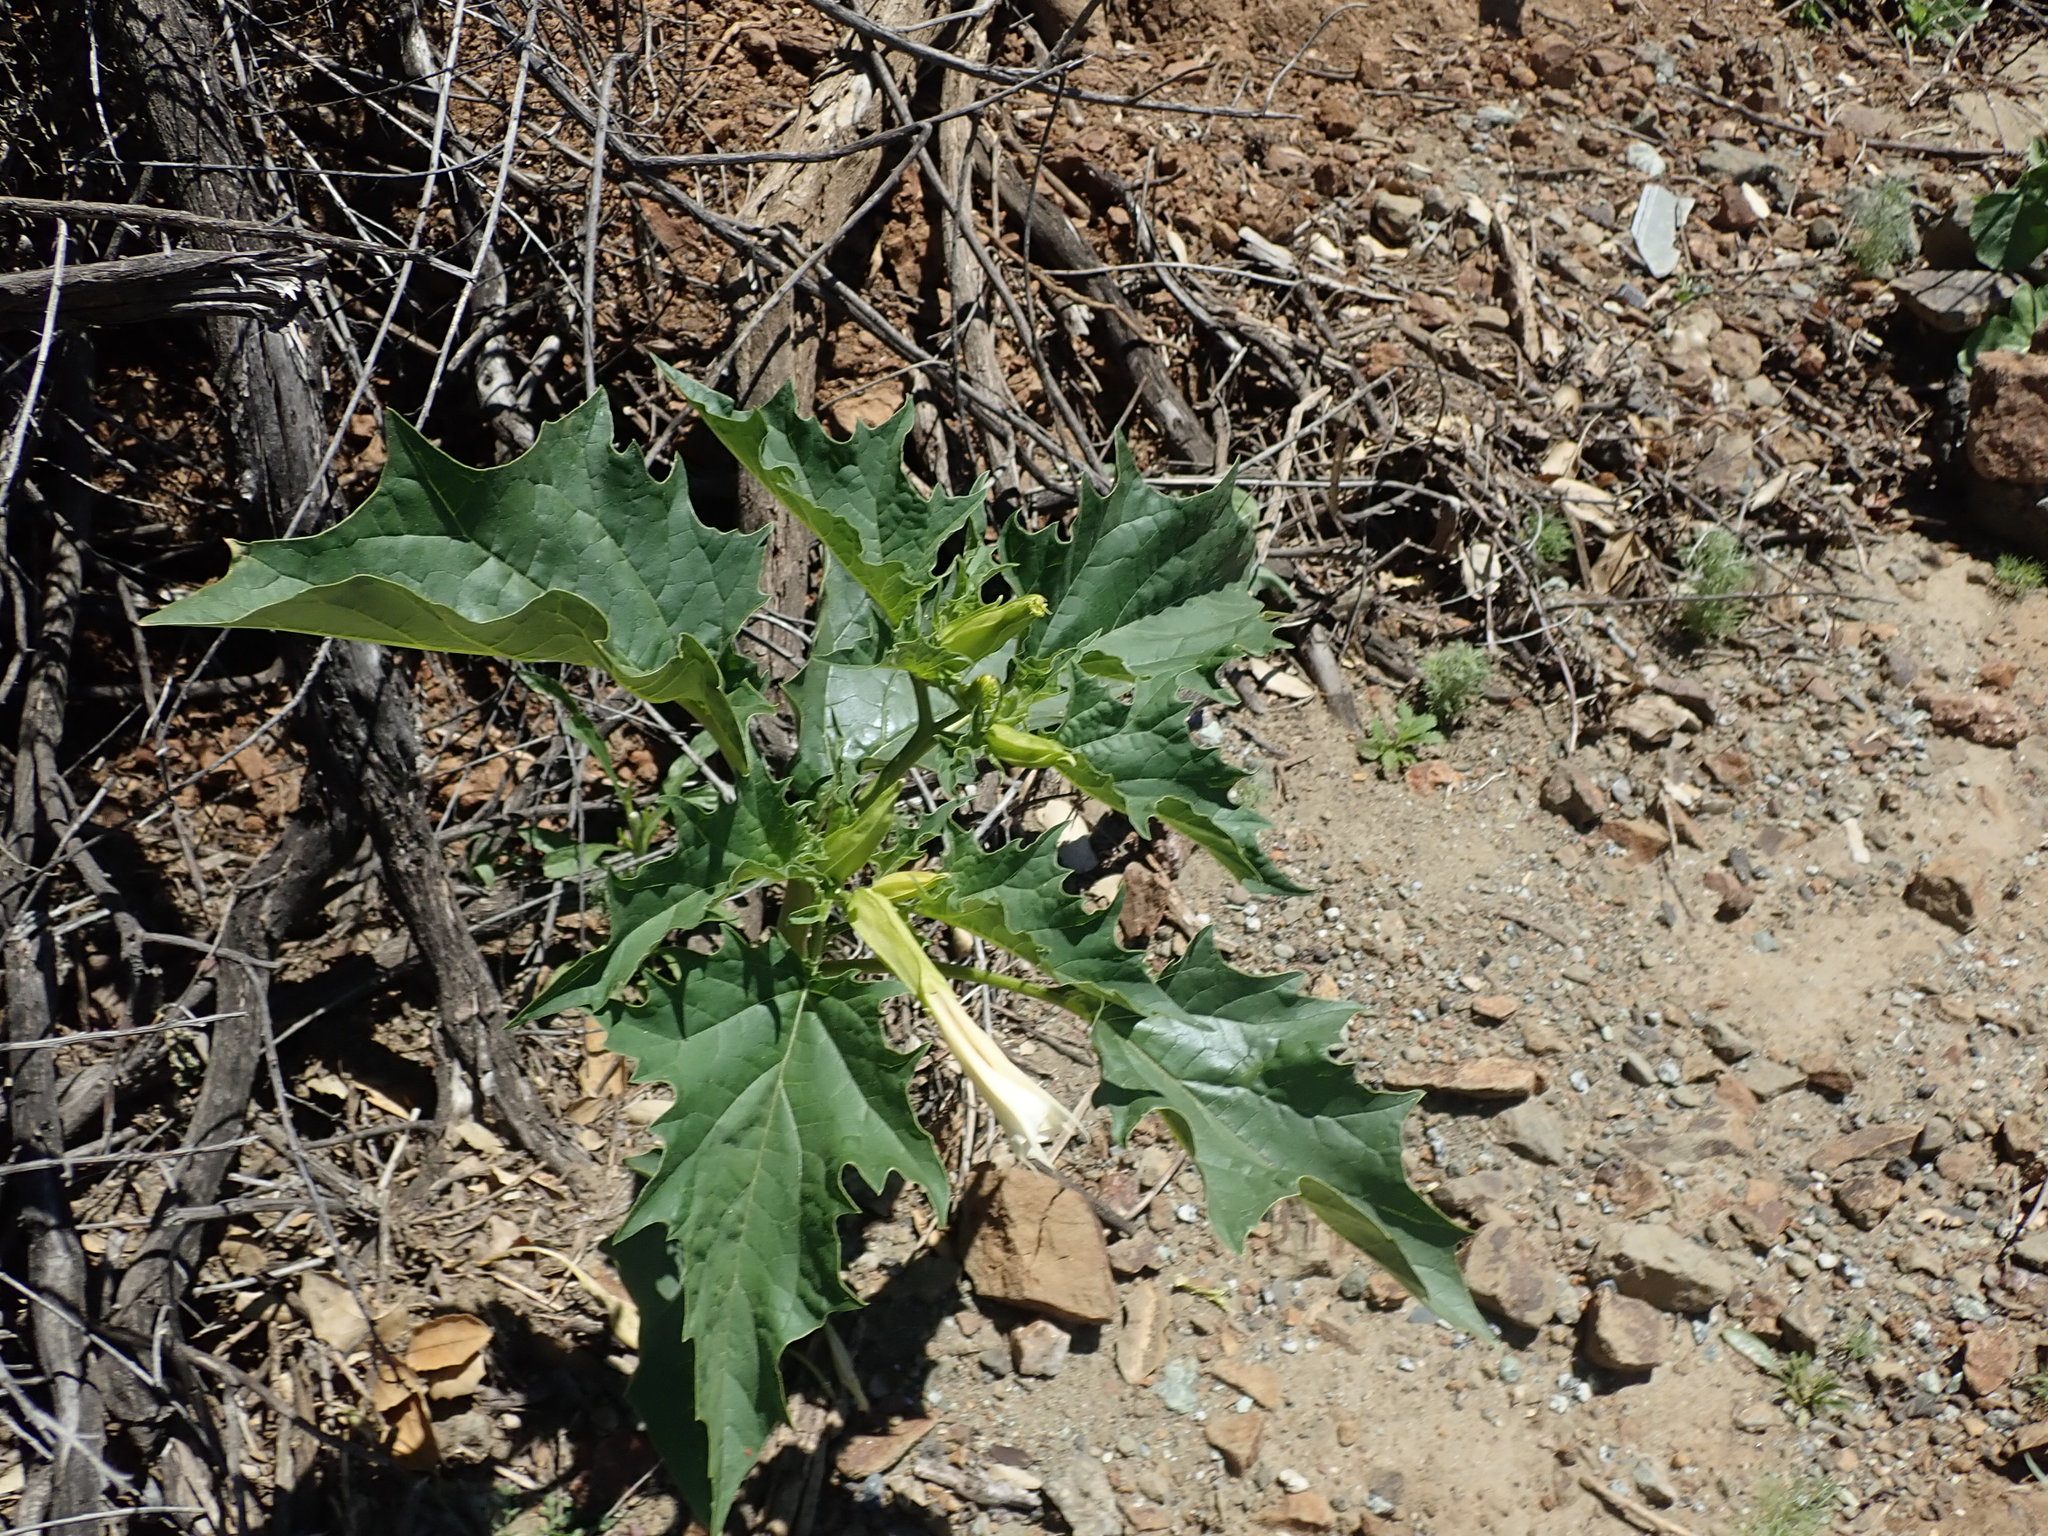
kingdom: Plantae
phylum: Tracheophyta
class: Magnoliopsida
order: Solanales
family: Solanaceae
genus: Datura
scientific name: Datura stramonium
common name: Thorn-apple
